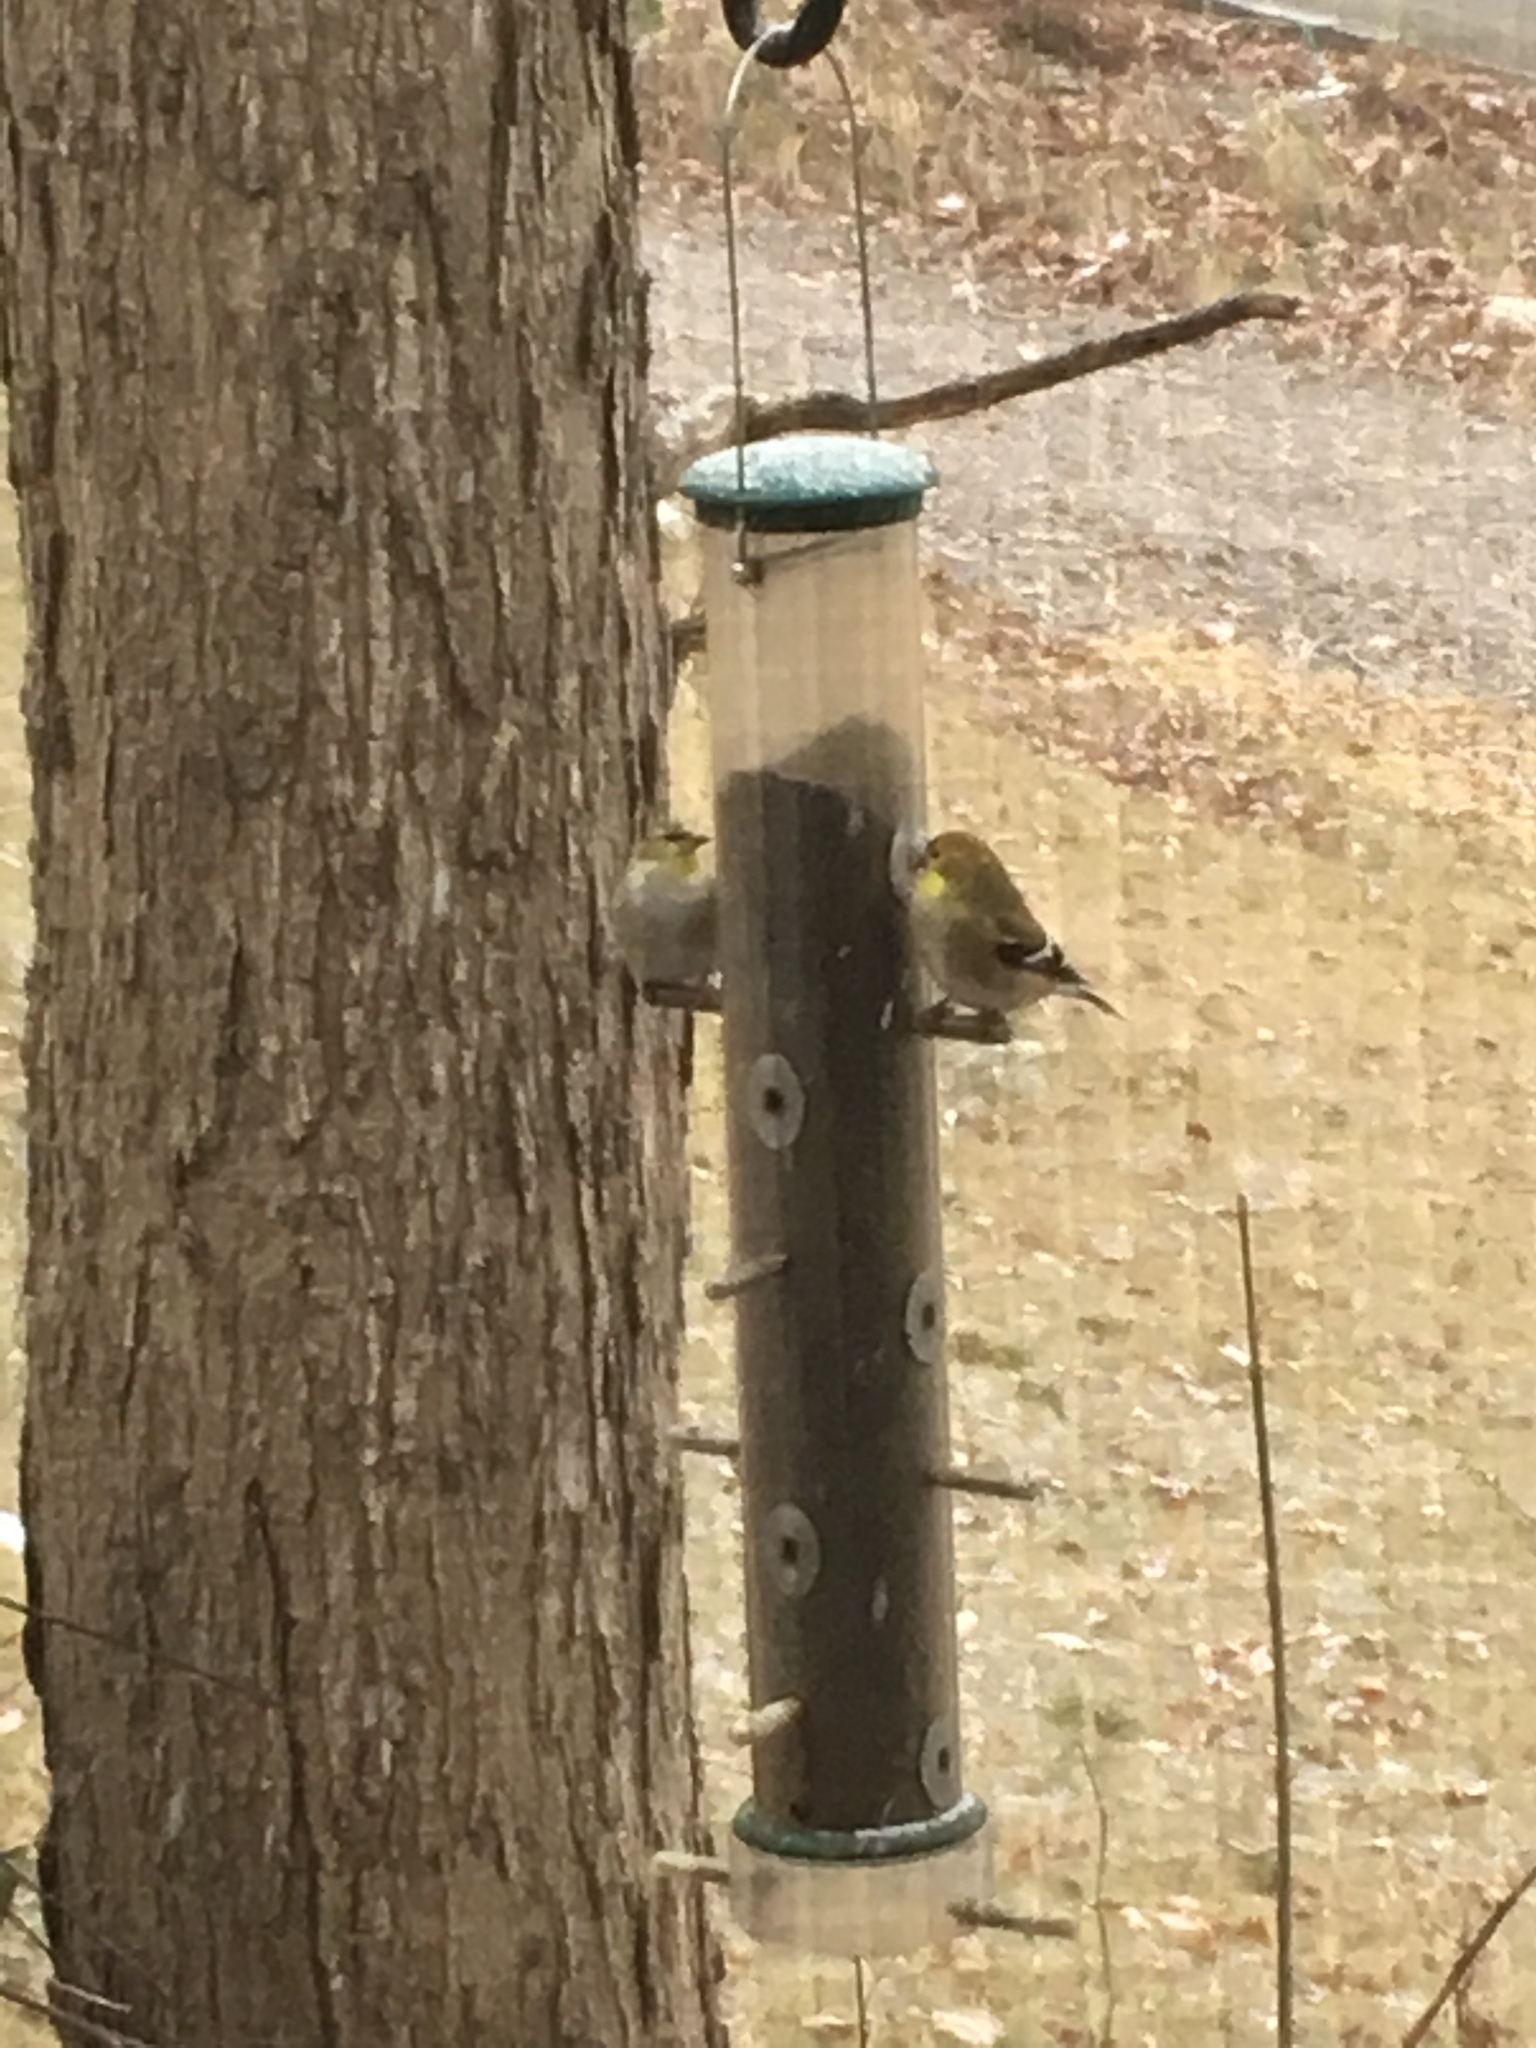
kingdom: Animalia
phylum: Chordata
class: Aves
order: Passeriformes
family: Fringillidae
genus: Spinus
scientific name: Spinus tristis
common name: American goldfinch
